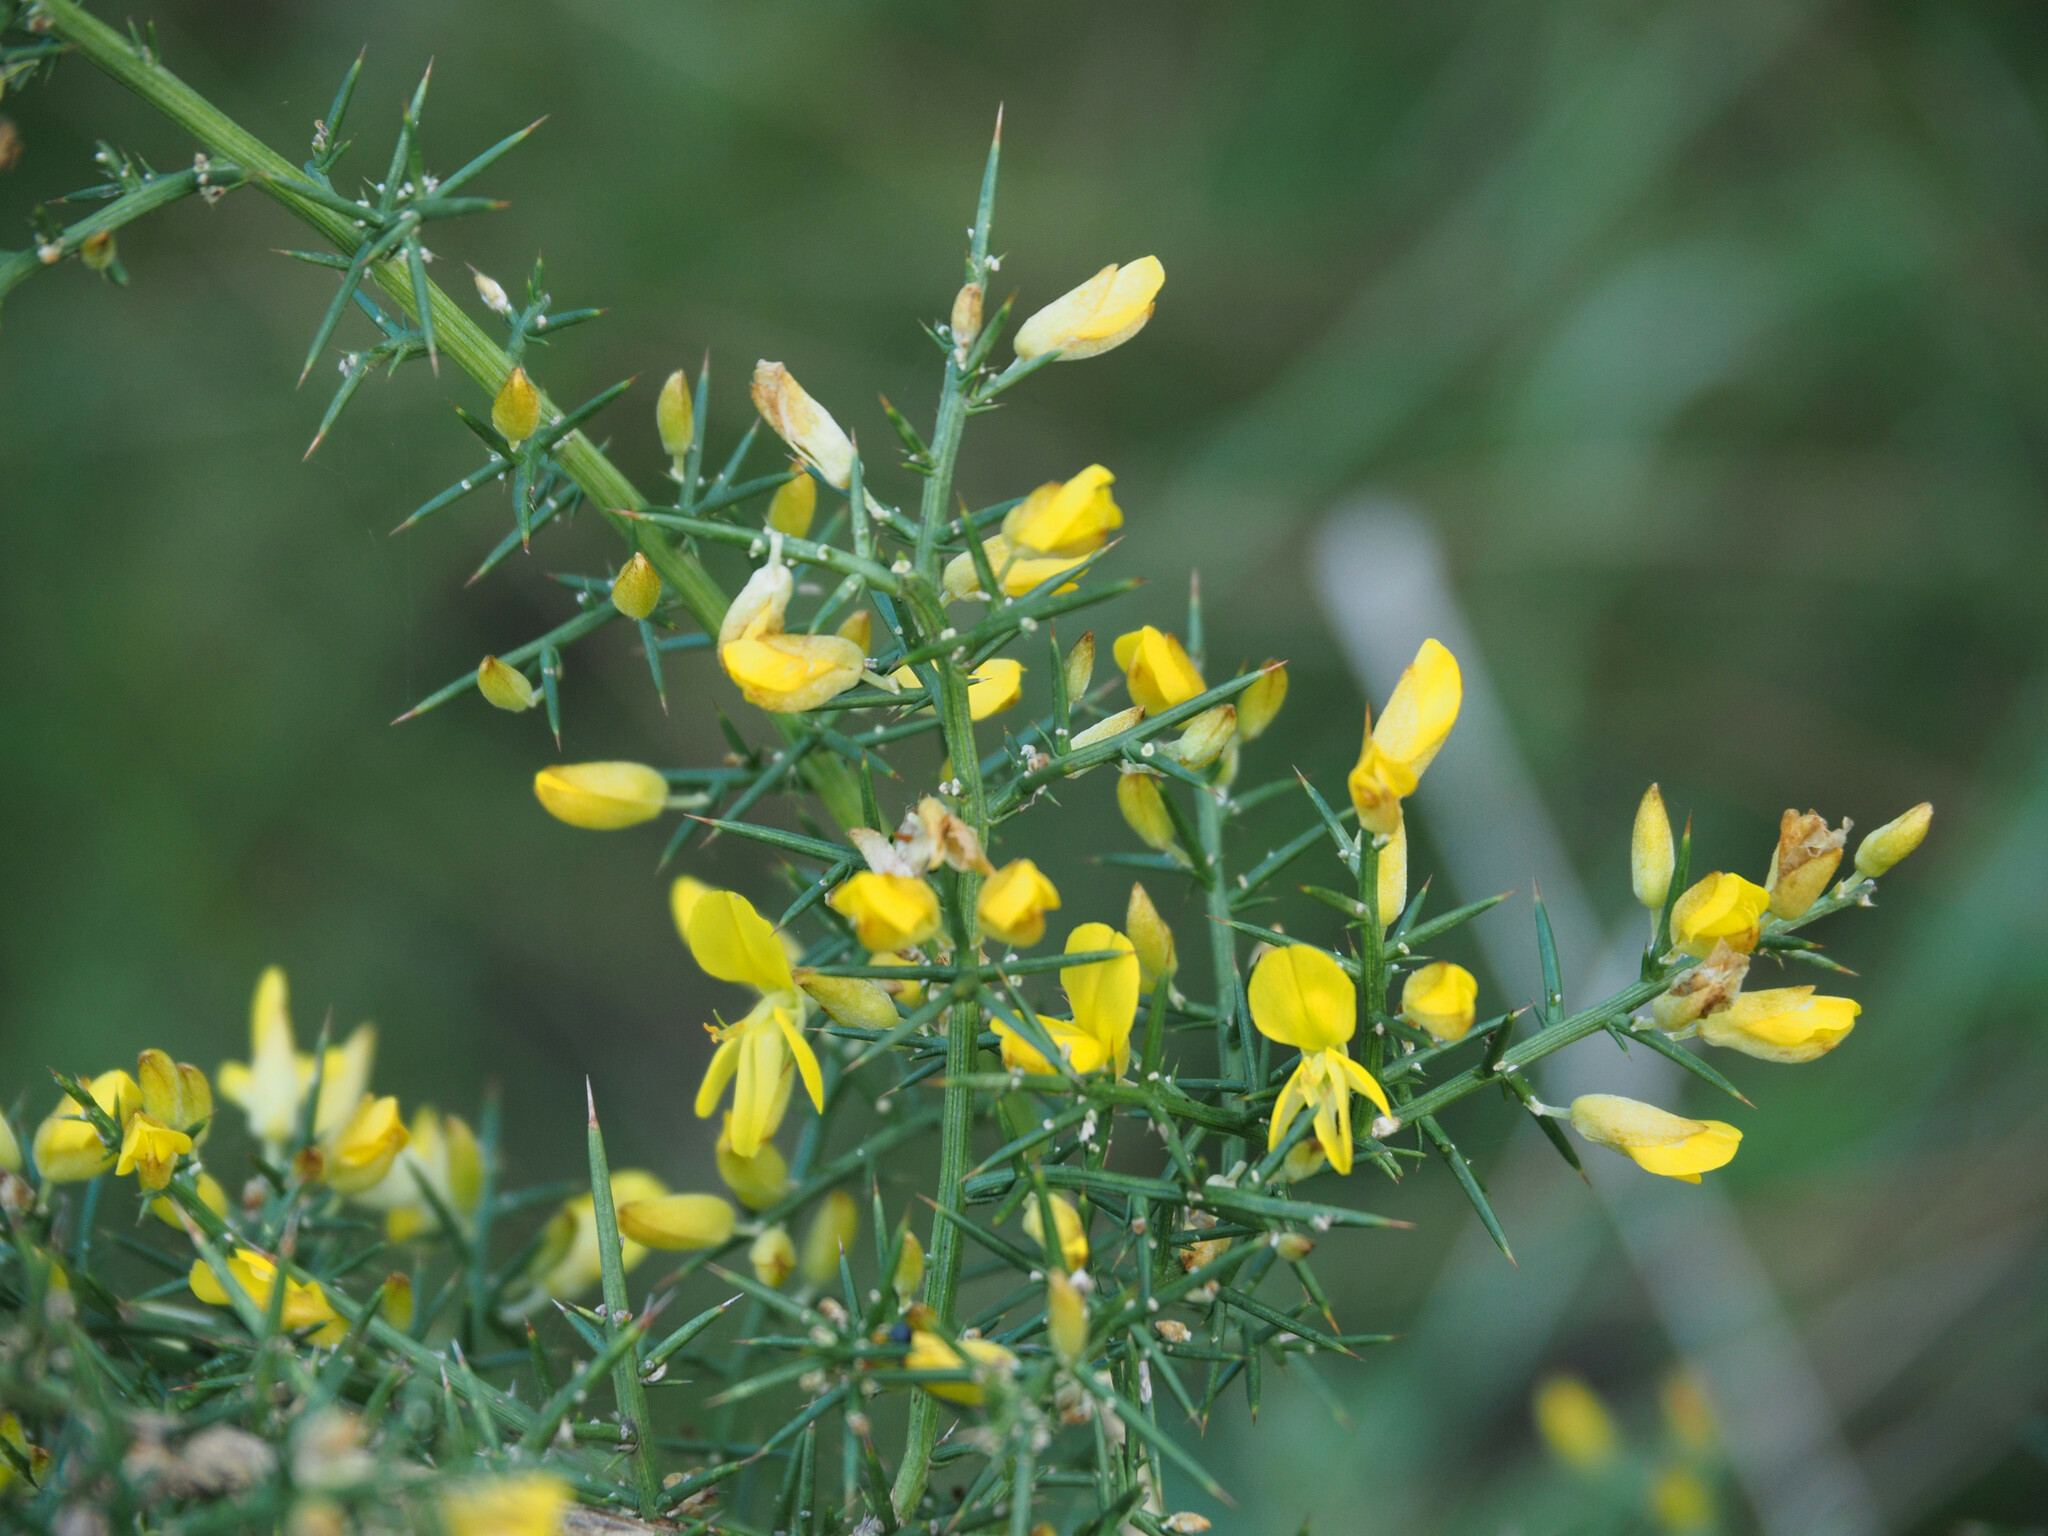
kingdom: Plantae
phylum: Tracheophyta
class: Magnoliopsida
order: Fabales
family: Fabaceae
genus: Ulex
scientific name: Ulex parviflorus
